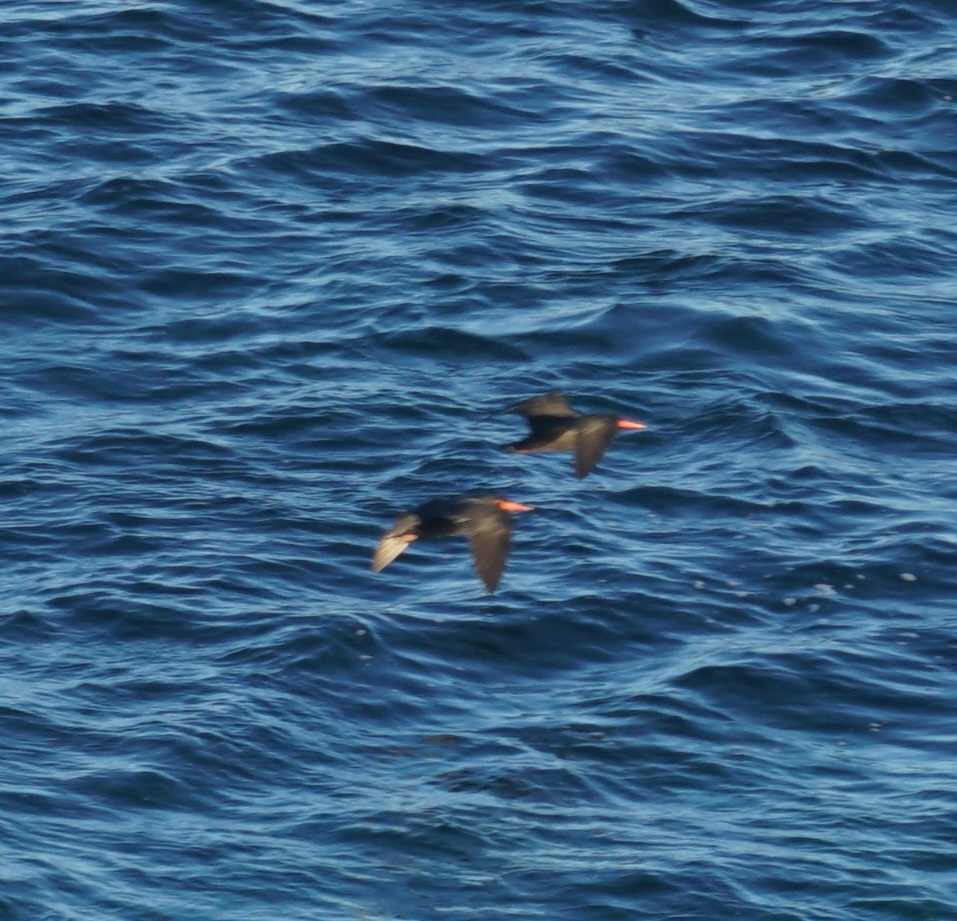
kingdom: Animalia
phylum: Chordata
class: Aves
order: Charadriiformes
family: Haematopodidae
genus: Haematopus
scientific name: Haematopus fuliginosus
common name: Sooty oystercatcher
